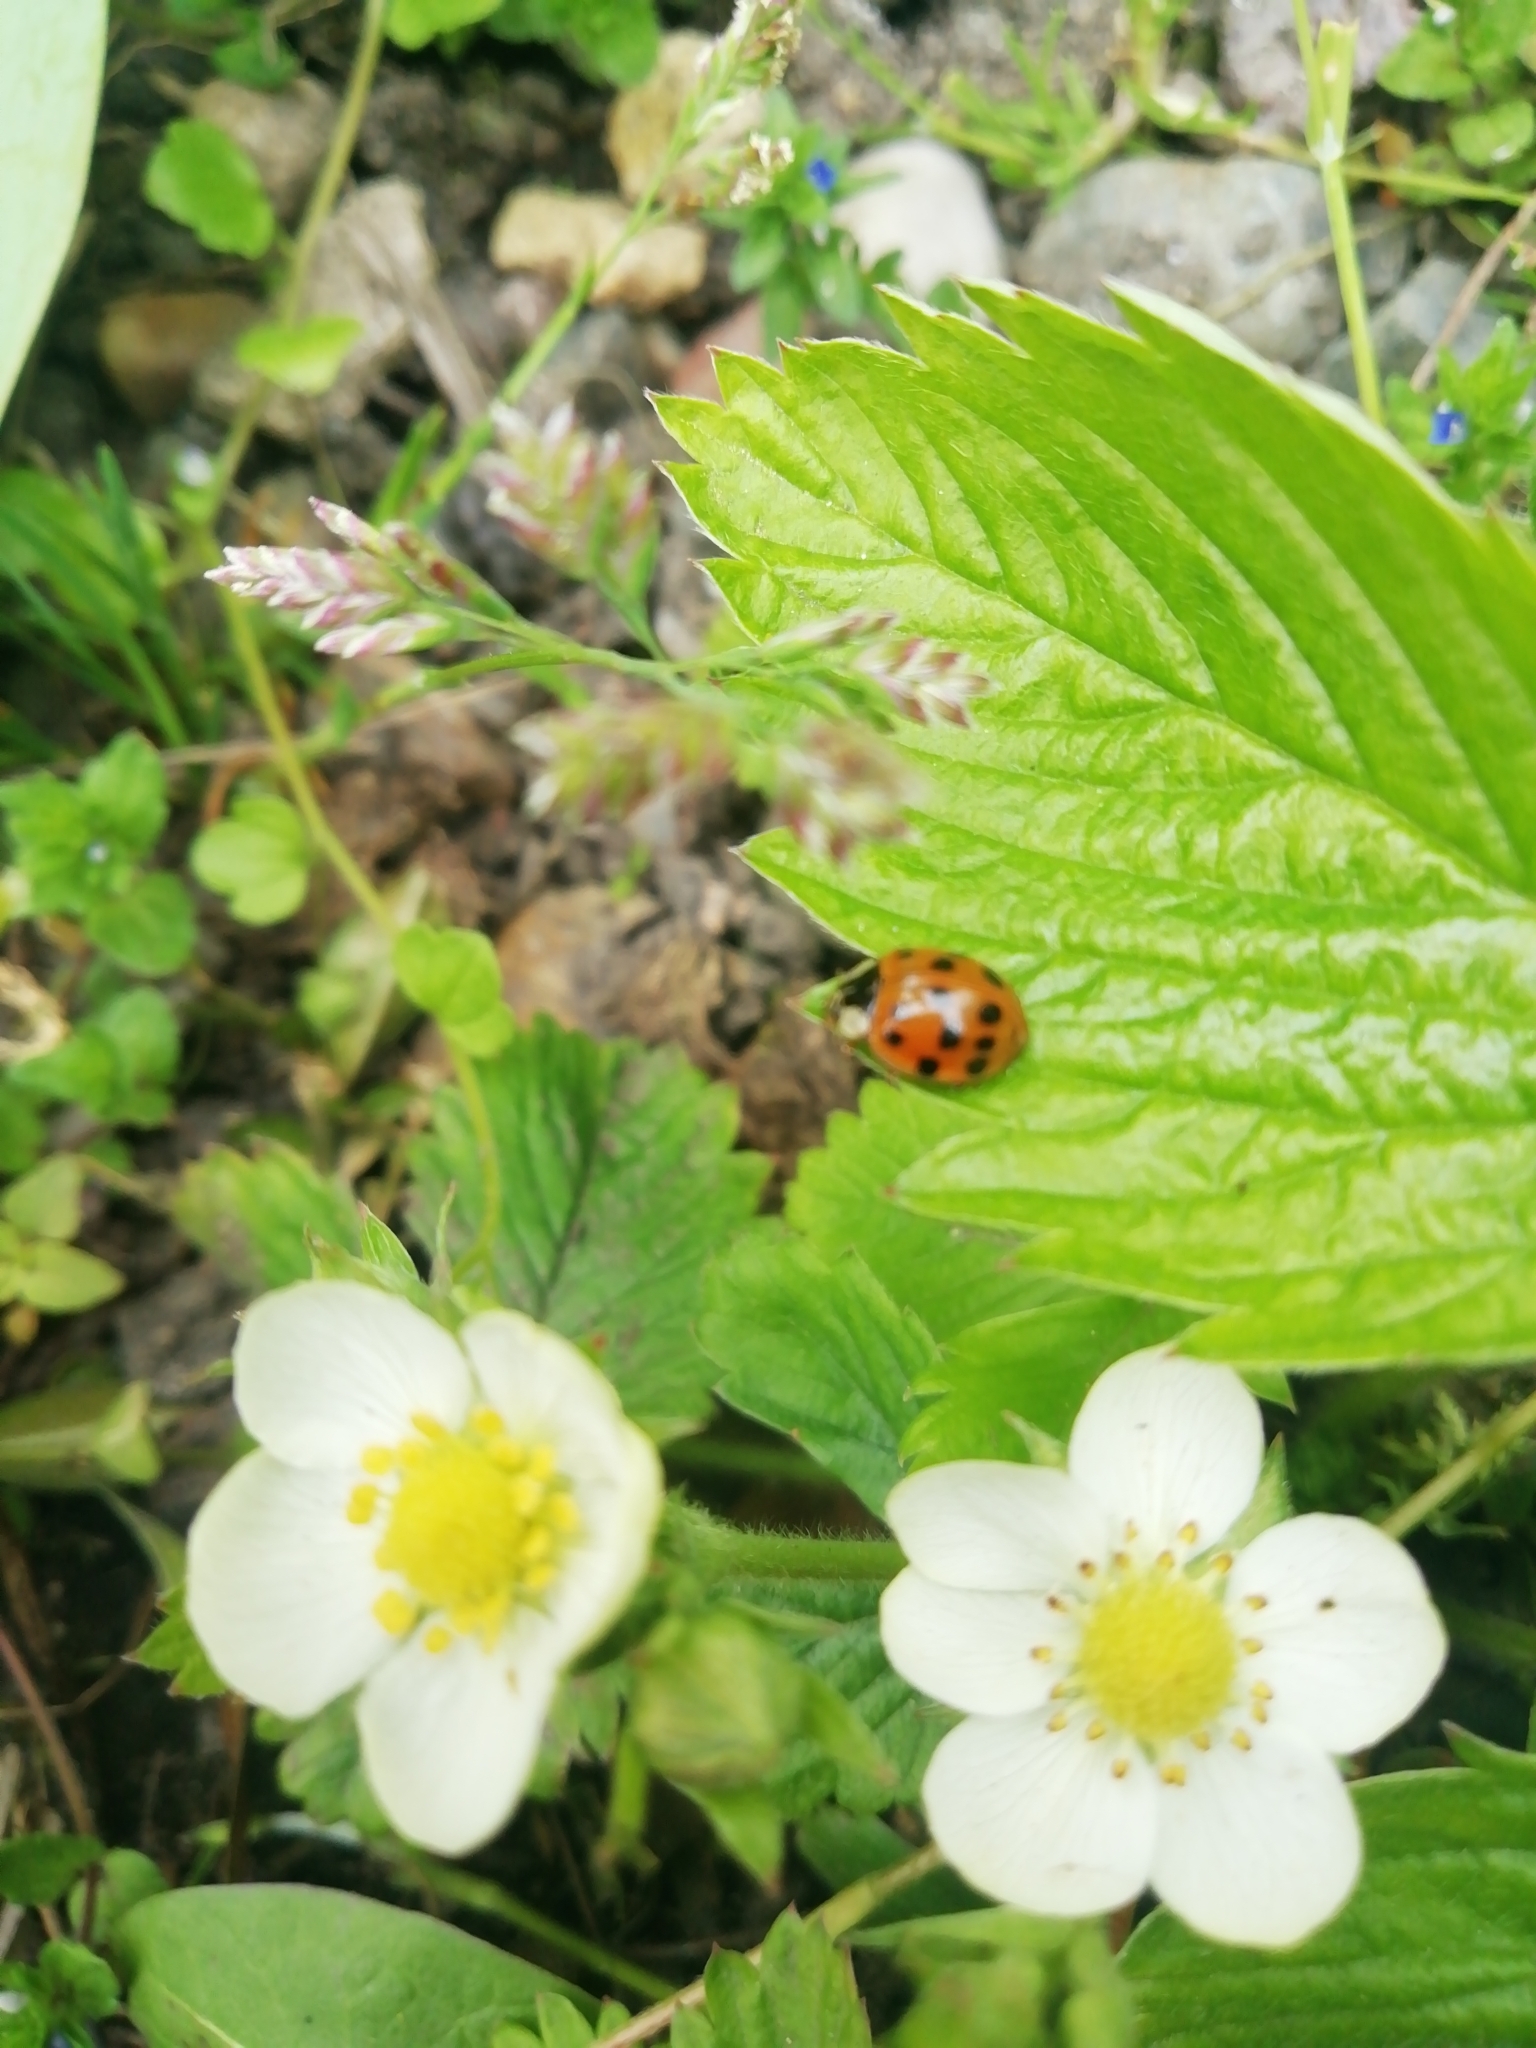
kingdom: Animalia
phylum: Arthropoda
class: Insecta
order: Coleoptera
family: Coccinellidae
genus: Harmonia
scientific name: Harmonia axyridis
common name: Harlequin ladybird
